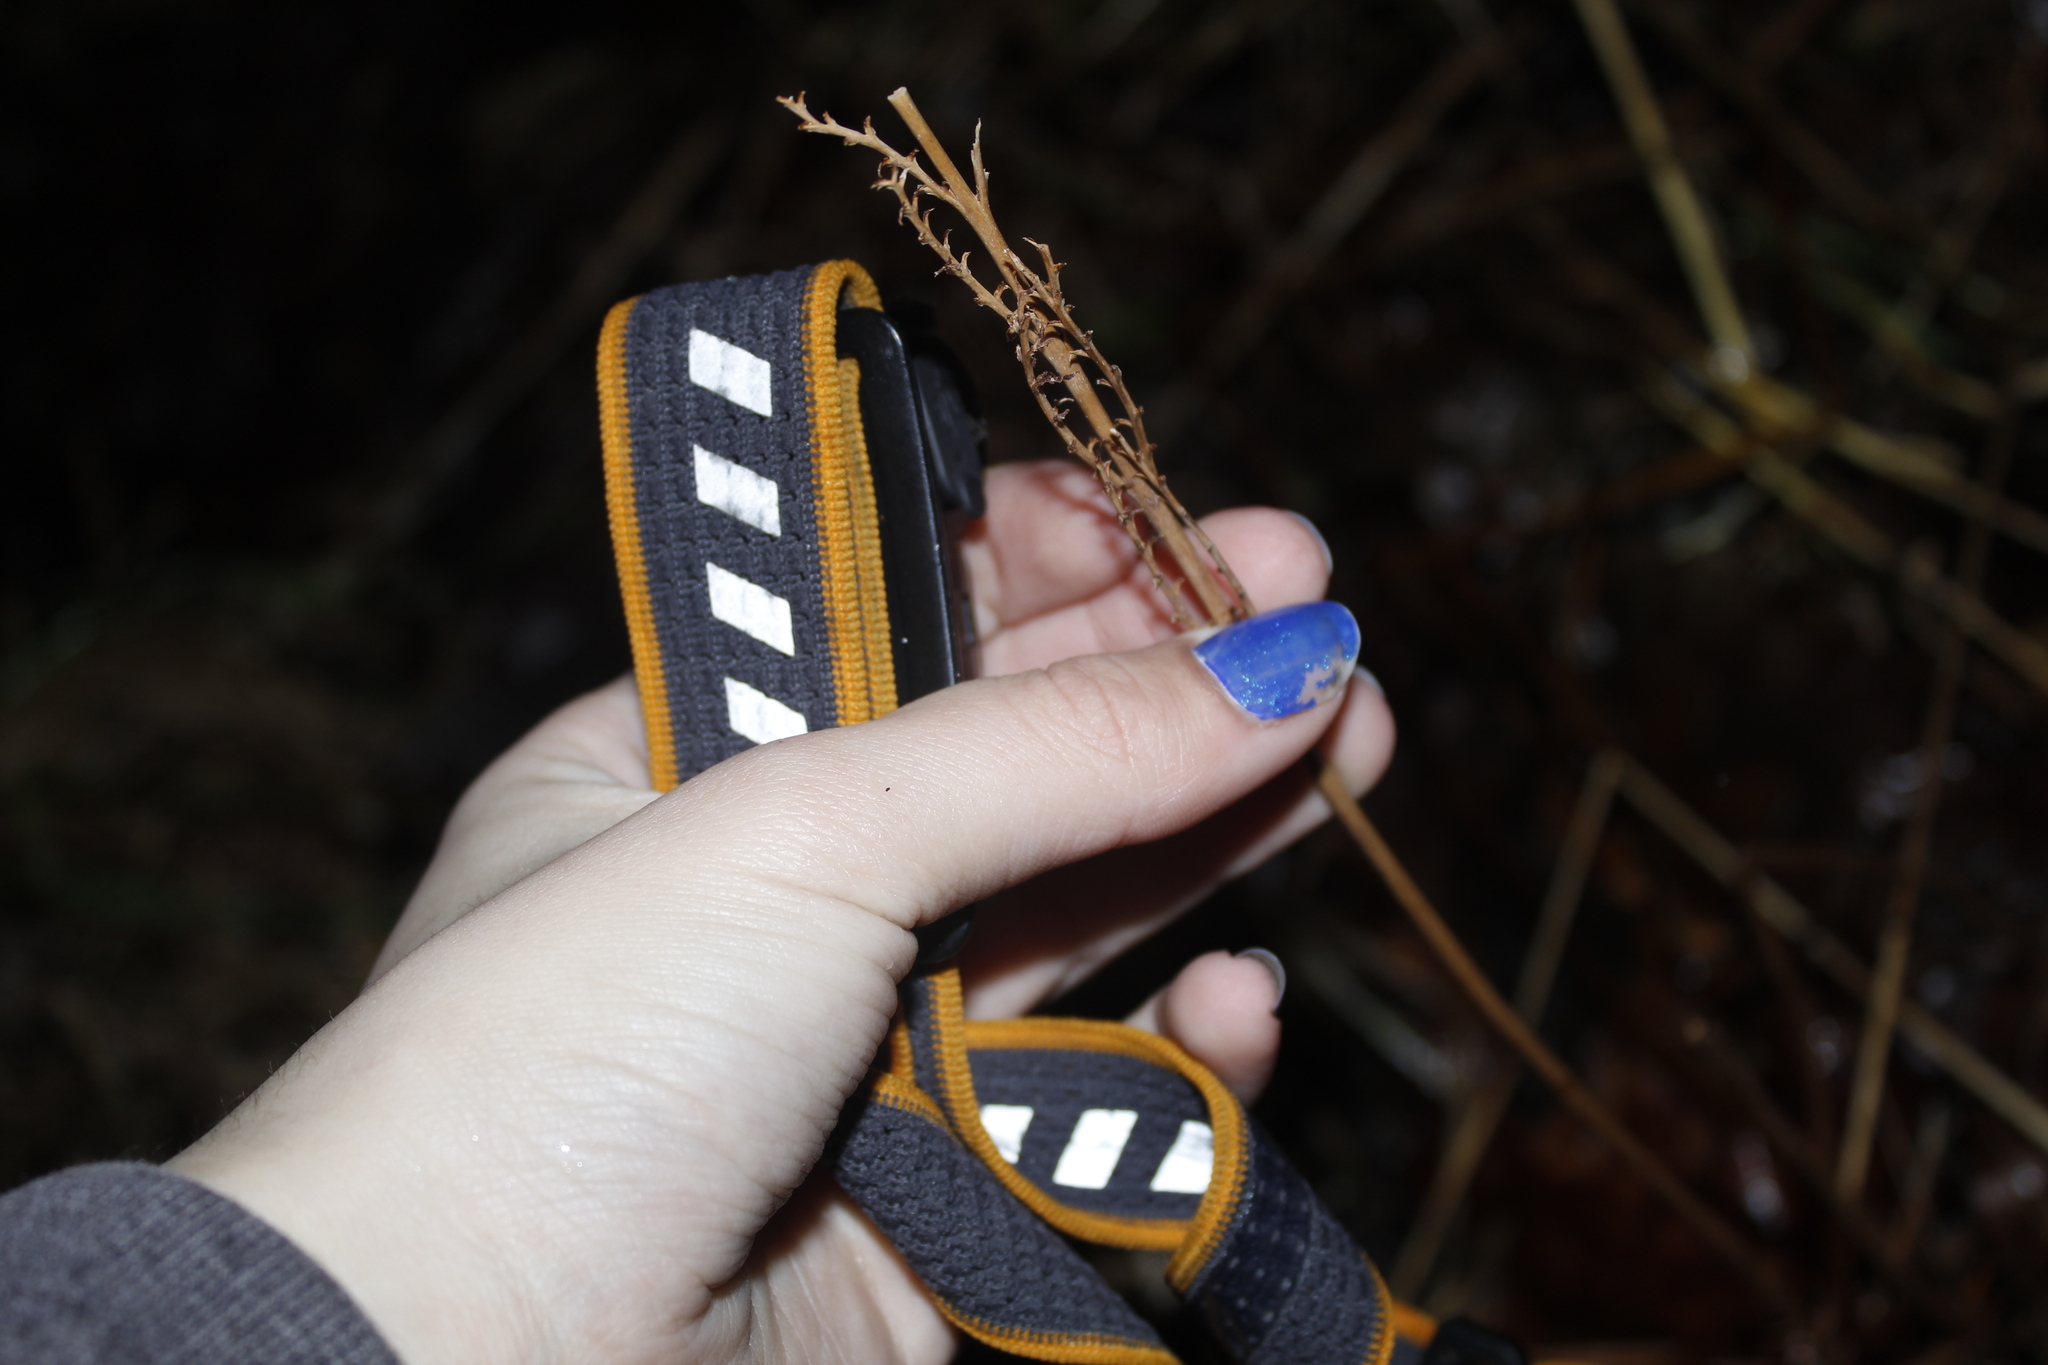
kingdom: Plantae
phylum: Tracheophyta
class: Polypodiopsida
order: Polypodiales
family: Onocleaceae
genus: Onoclea
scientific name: Onoclea sensibilis
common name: Sensitive fern
